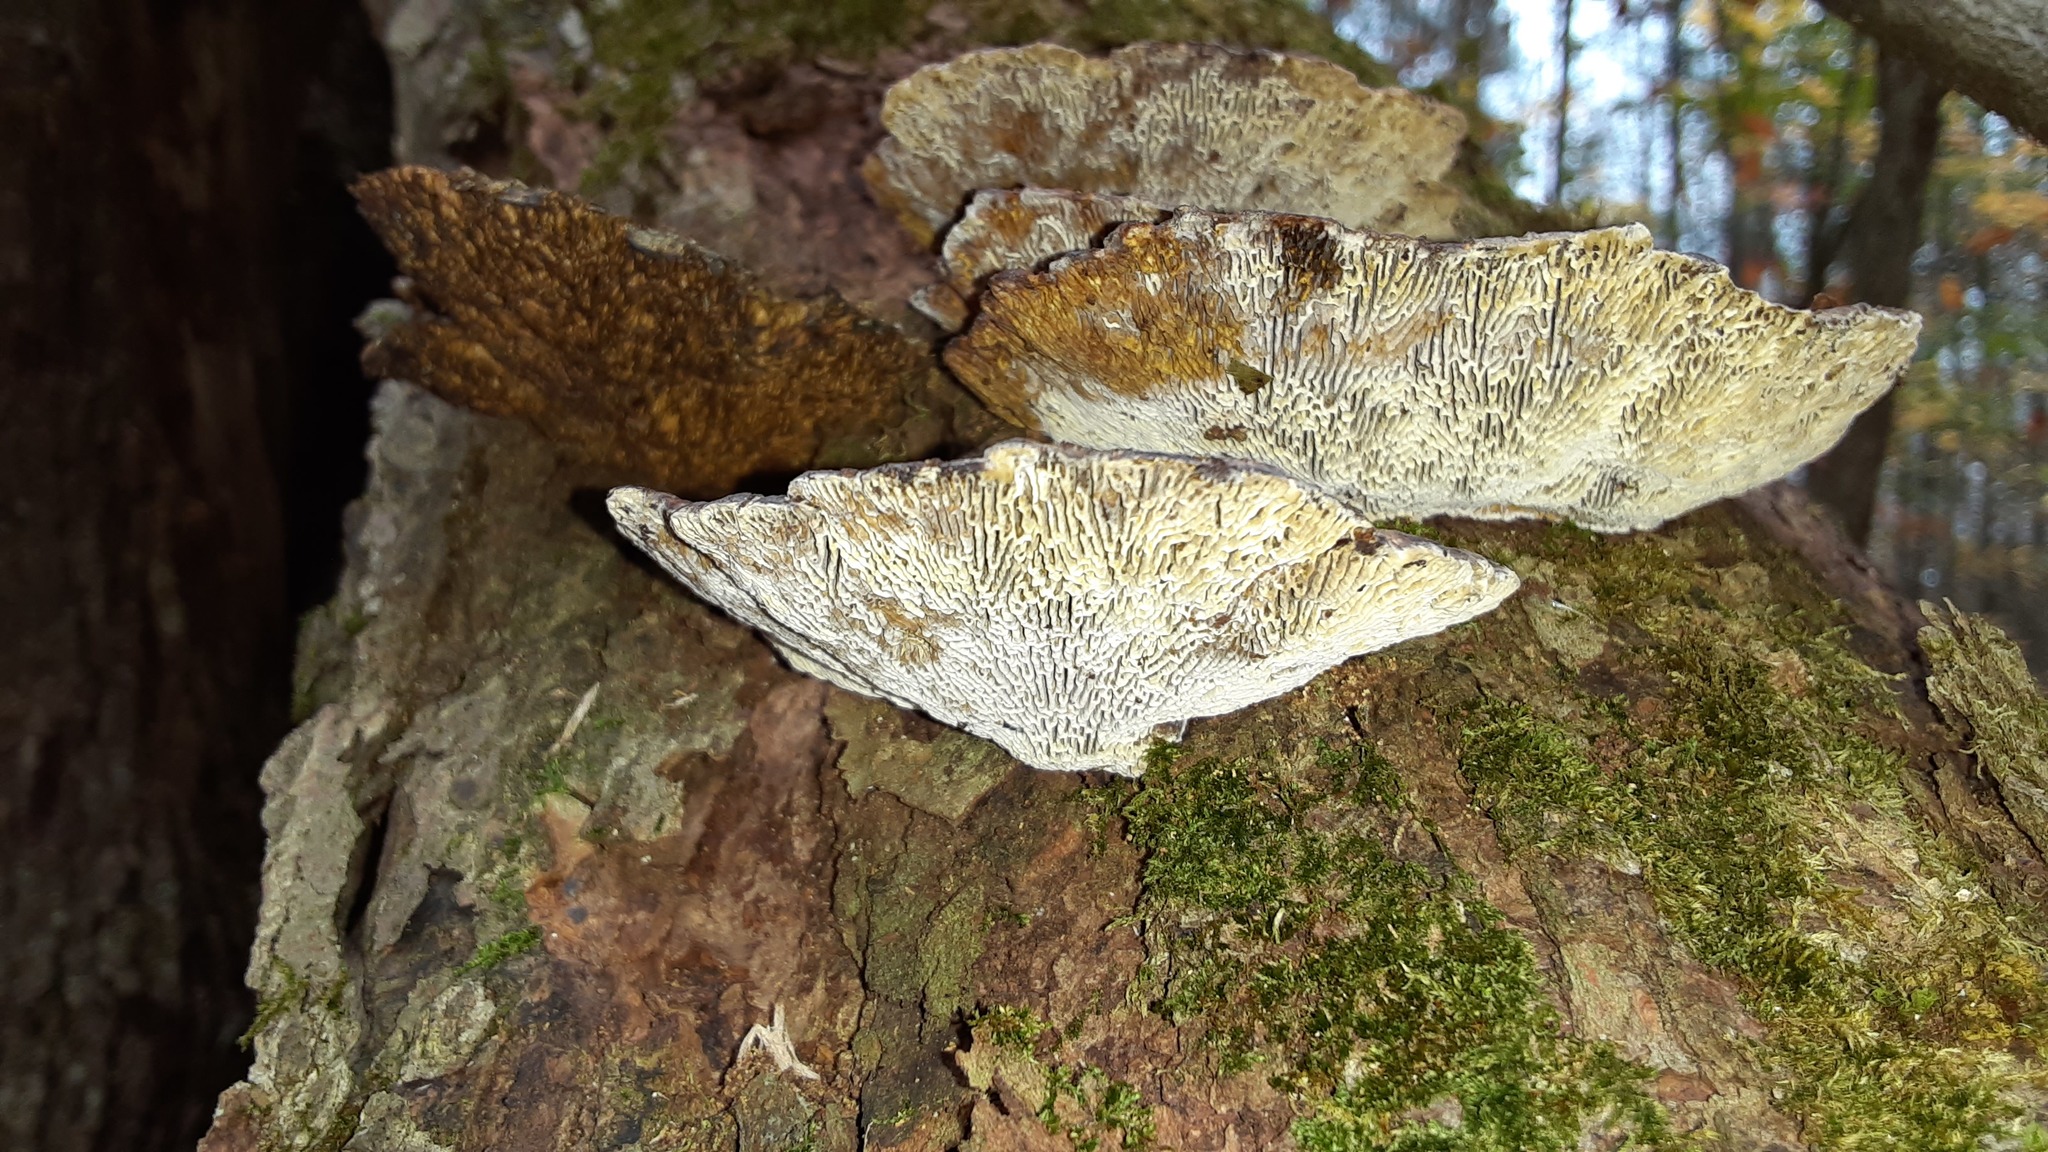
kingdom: Fungi
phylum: Basidiomycota
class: Agaricomycetes
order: Polyporales
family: Polyporaceae
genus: Daedaleopsis
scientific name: Daedaleopsis confragosa
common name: Blushing bracket
